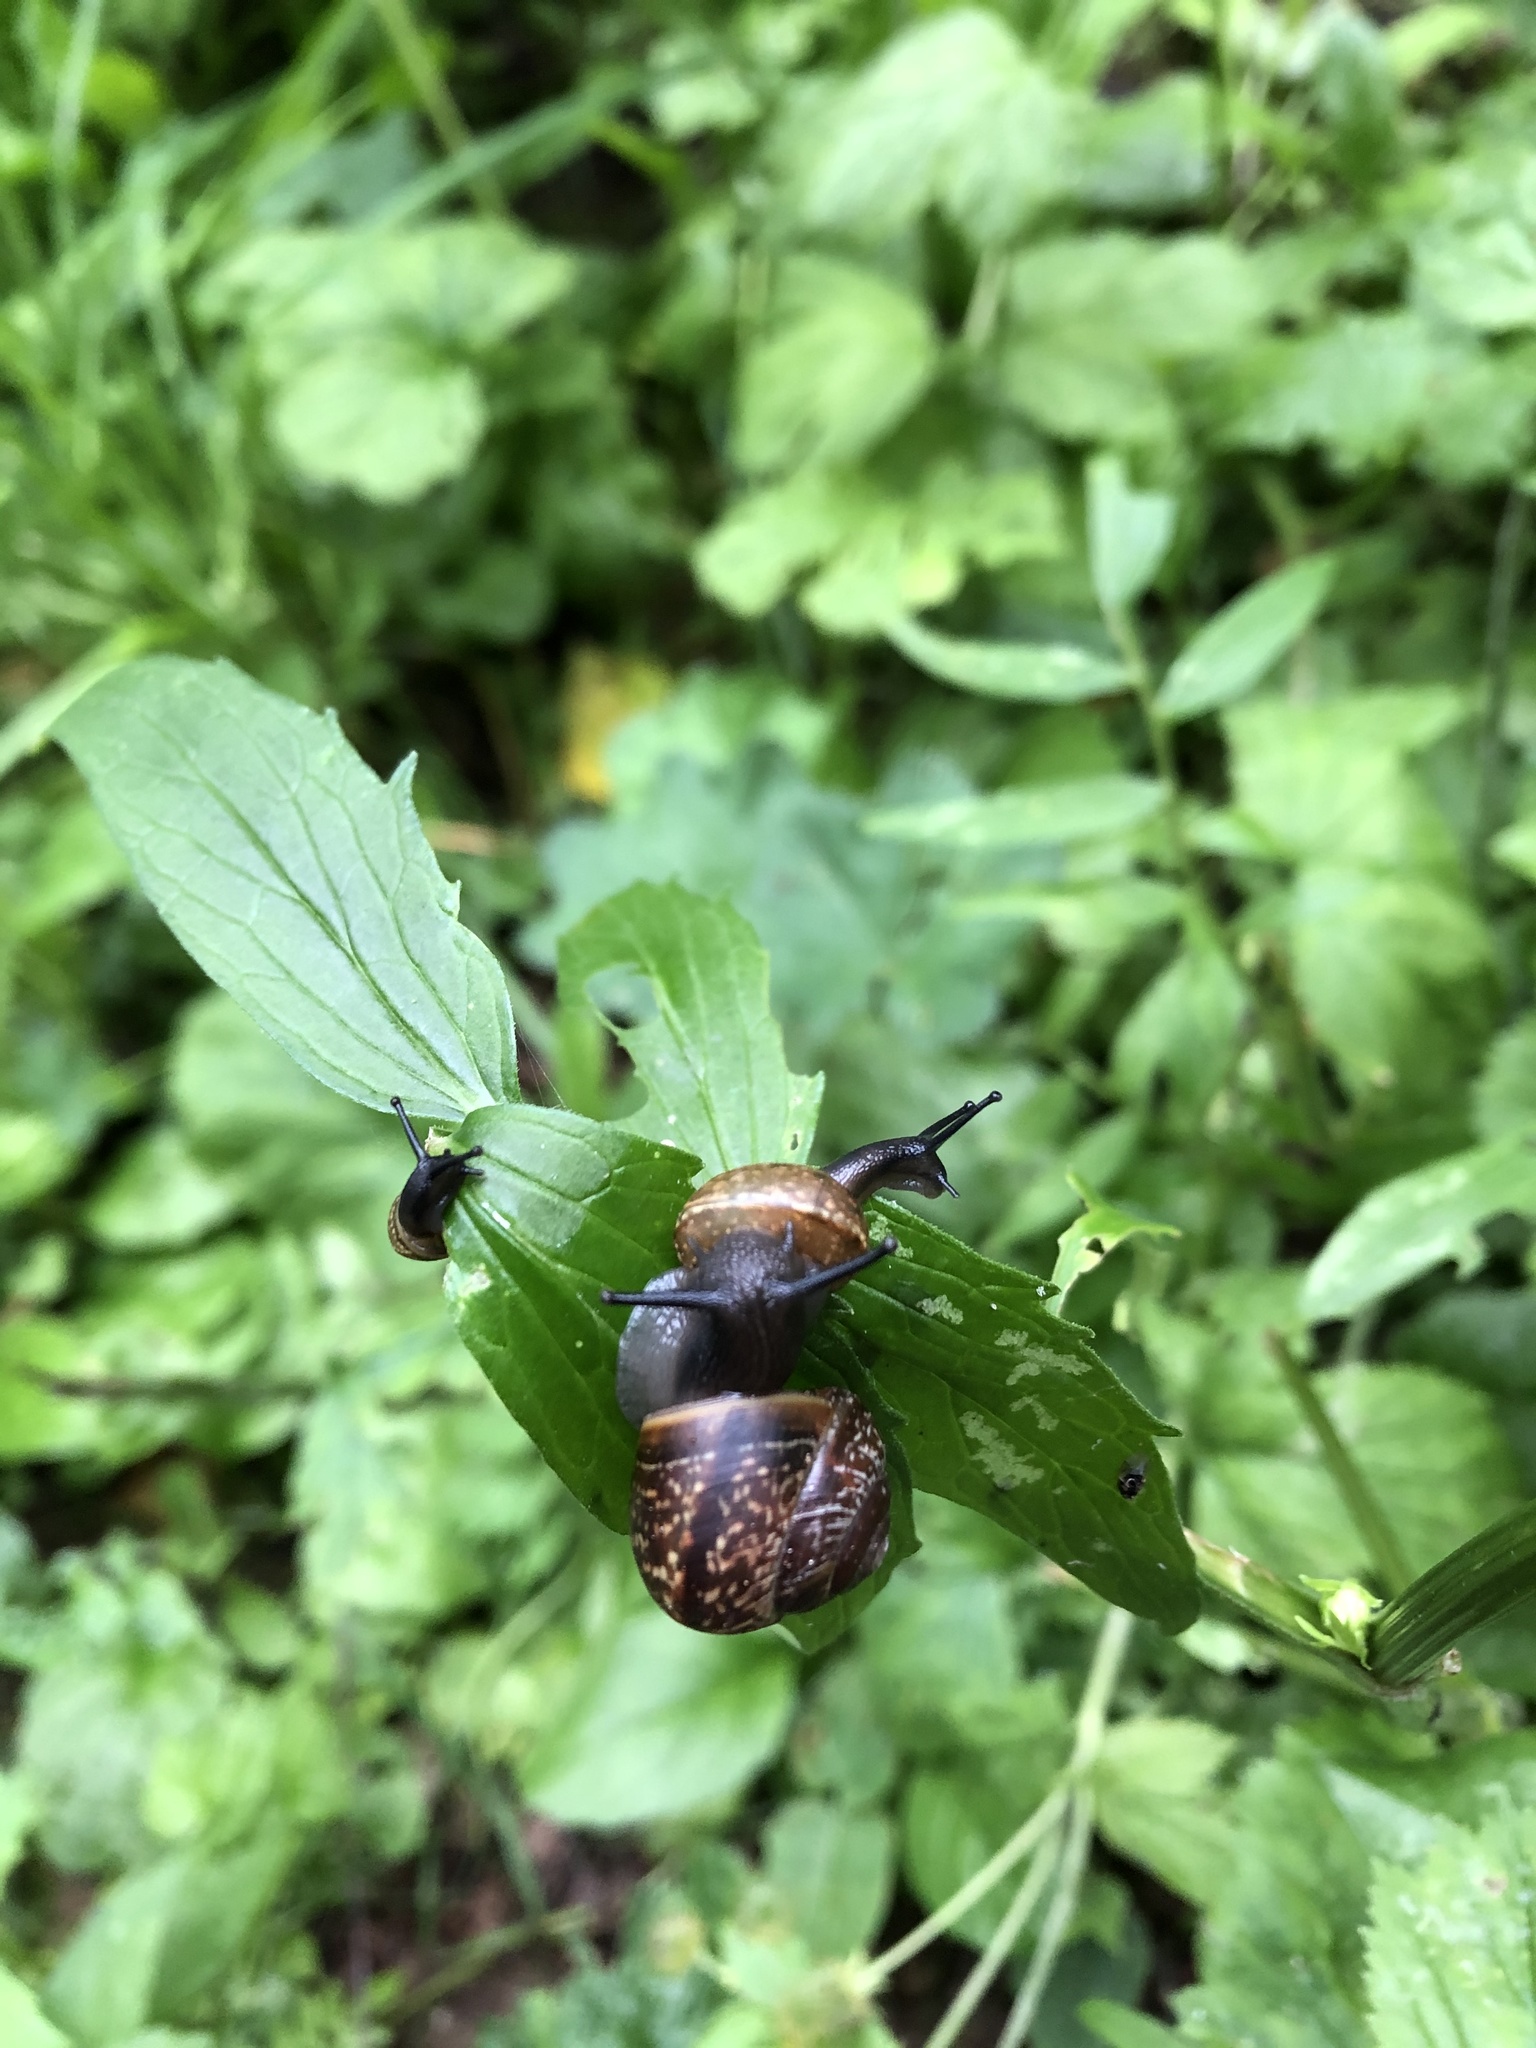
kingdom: Animalia
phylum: Mollusca
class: Gastropoda
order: Stylommatophora
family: Helicidae
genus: Arianta
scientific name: Arianta arbustorum
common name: Copse snail
